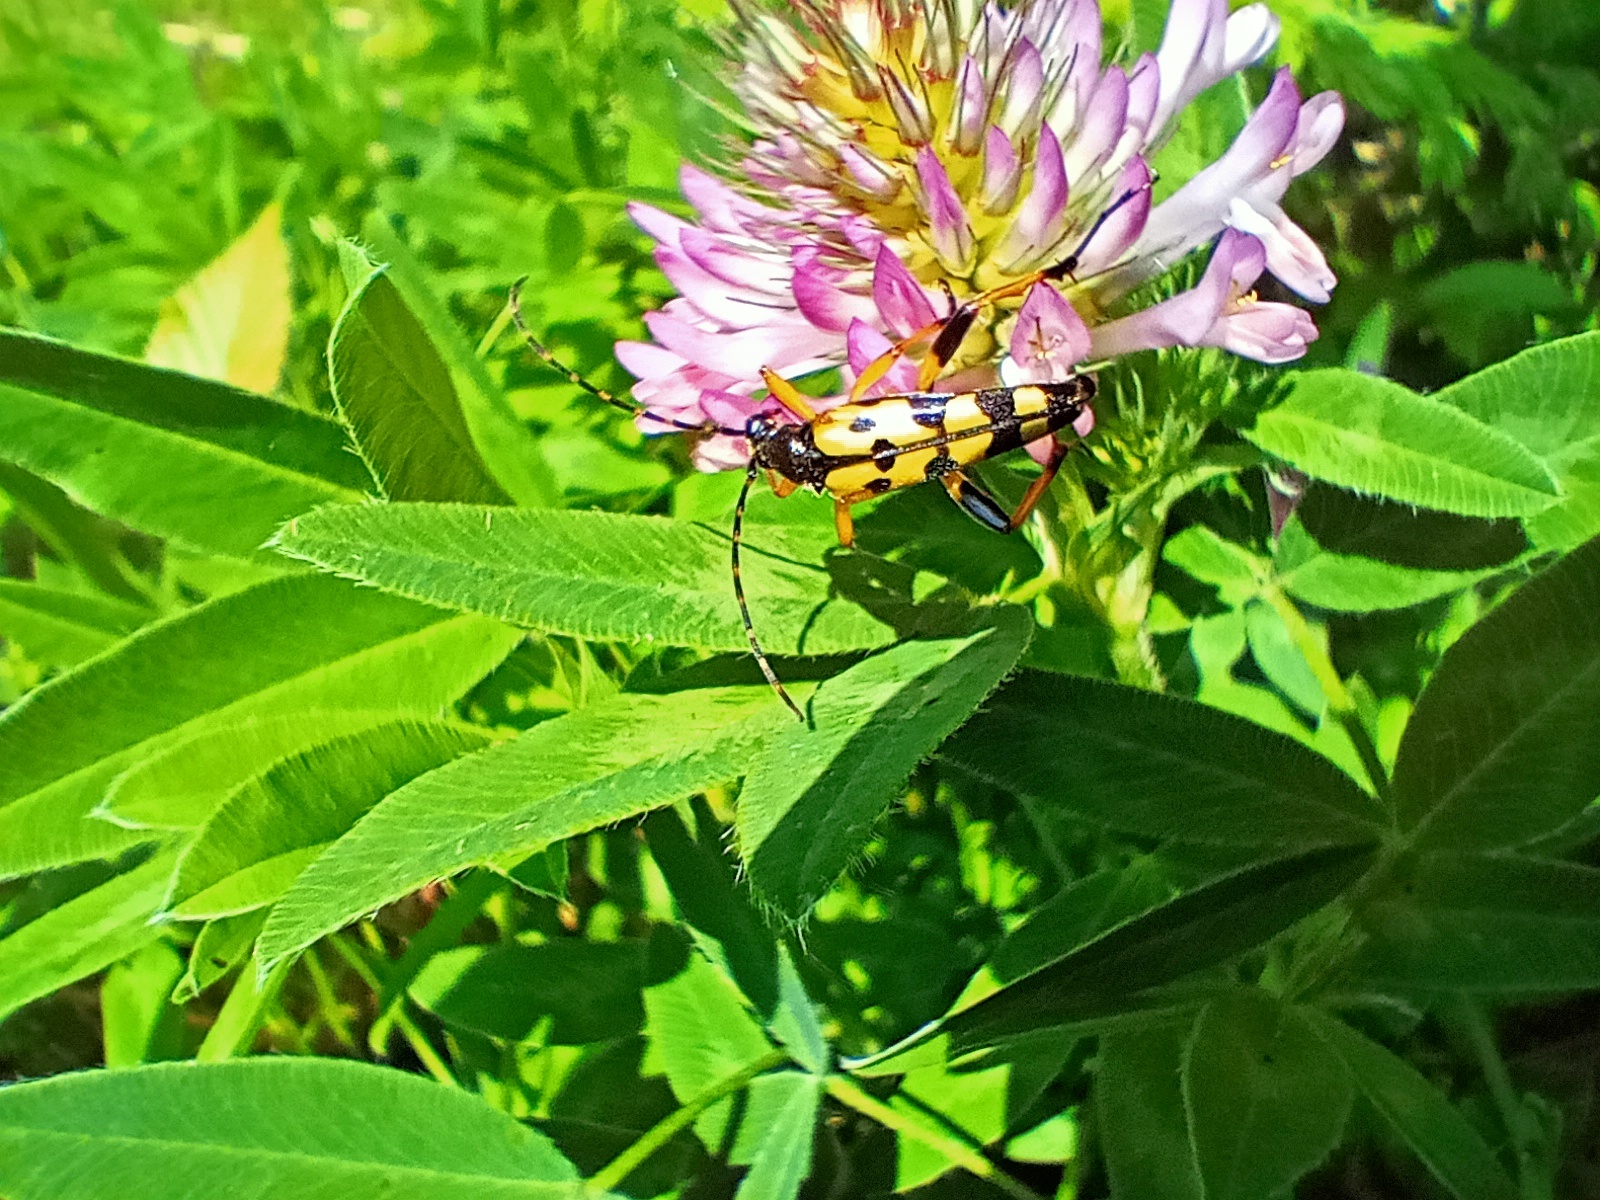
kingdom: Animalia
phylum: Arthropoda
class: Insecta
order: Coleoptera
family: Cerambycidae
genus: Rutpela
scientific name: Rutpela maculata
